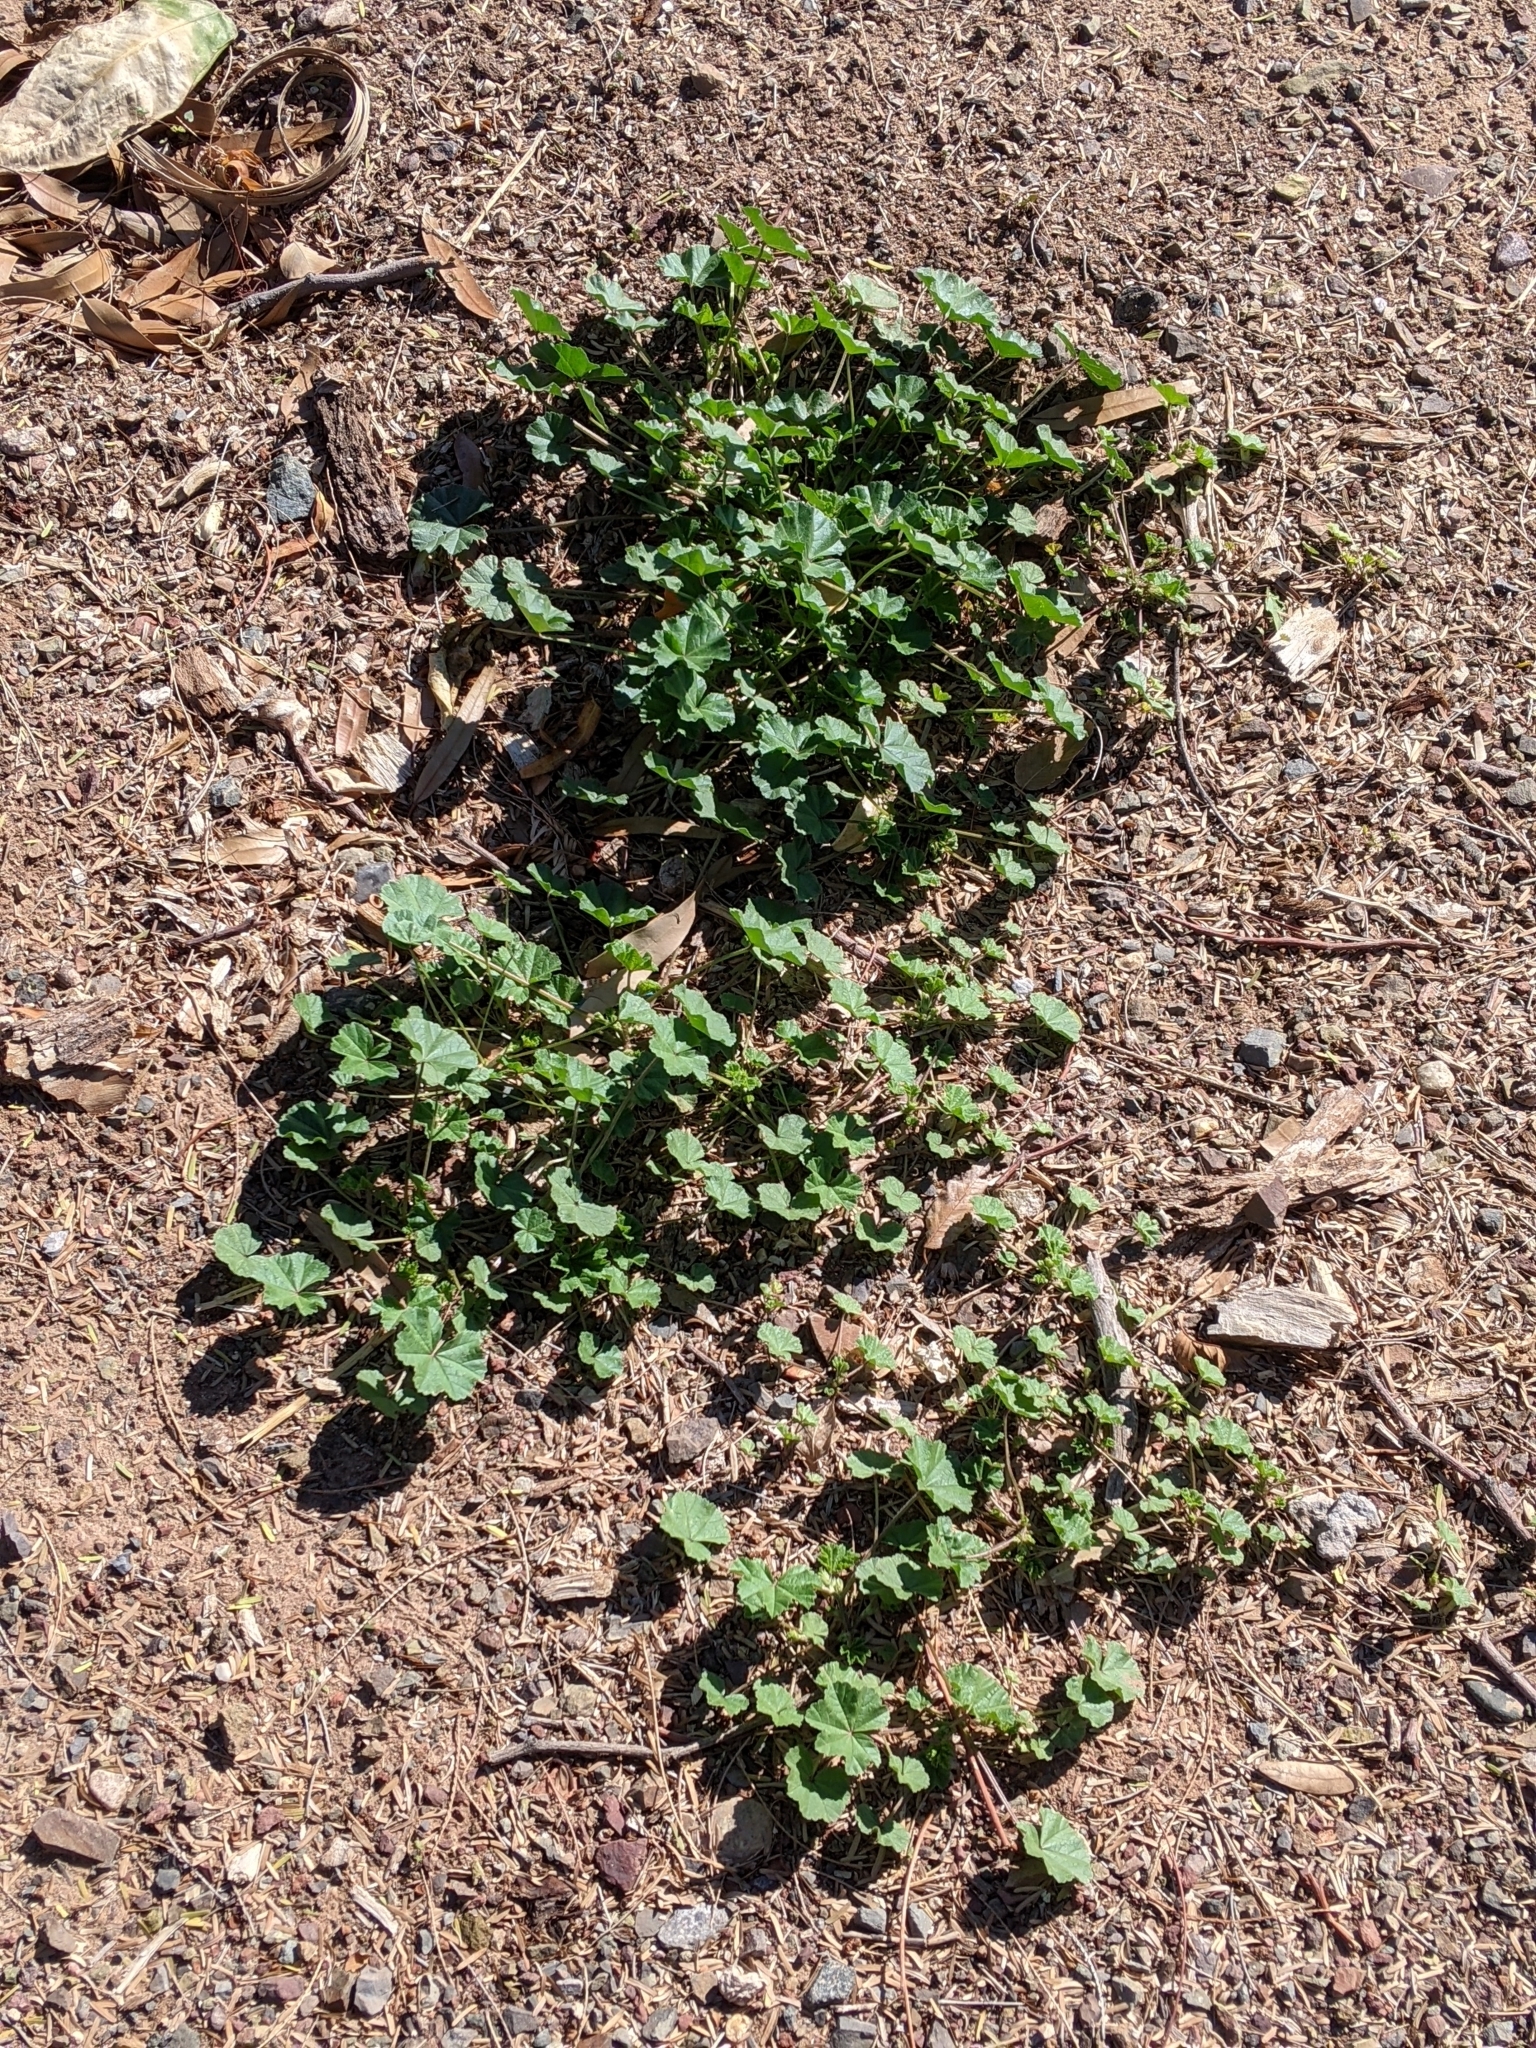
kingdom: Plantae
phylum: Tracheophyta
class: Magnoliopsida
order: Malvales
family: Malvaceae
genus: Malva
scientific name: Malva parviflora
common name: Least mallow
